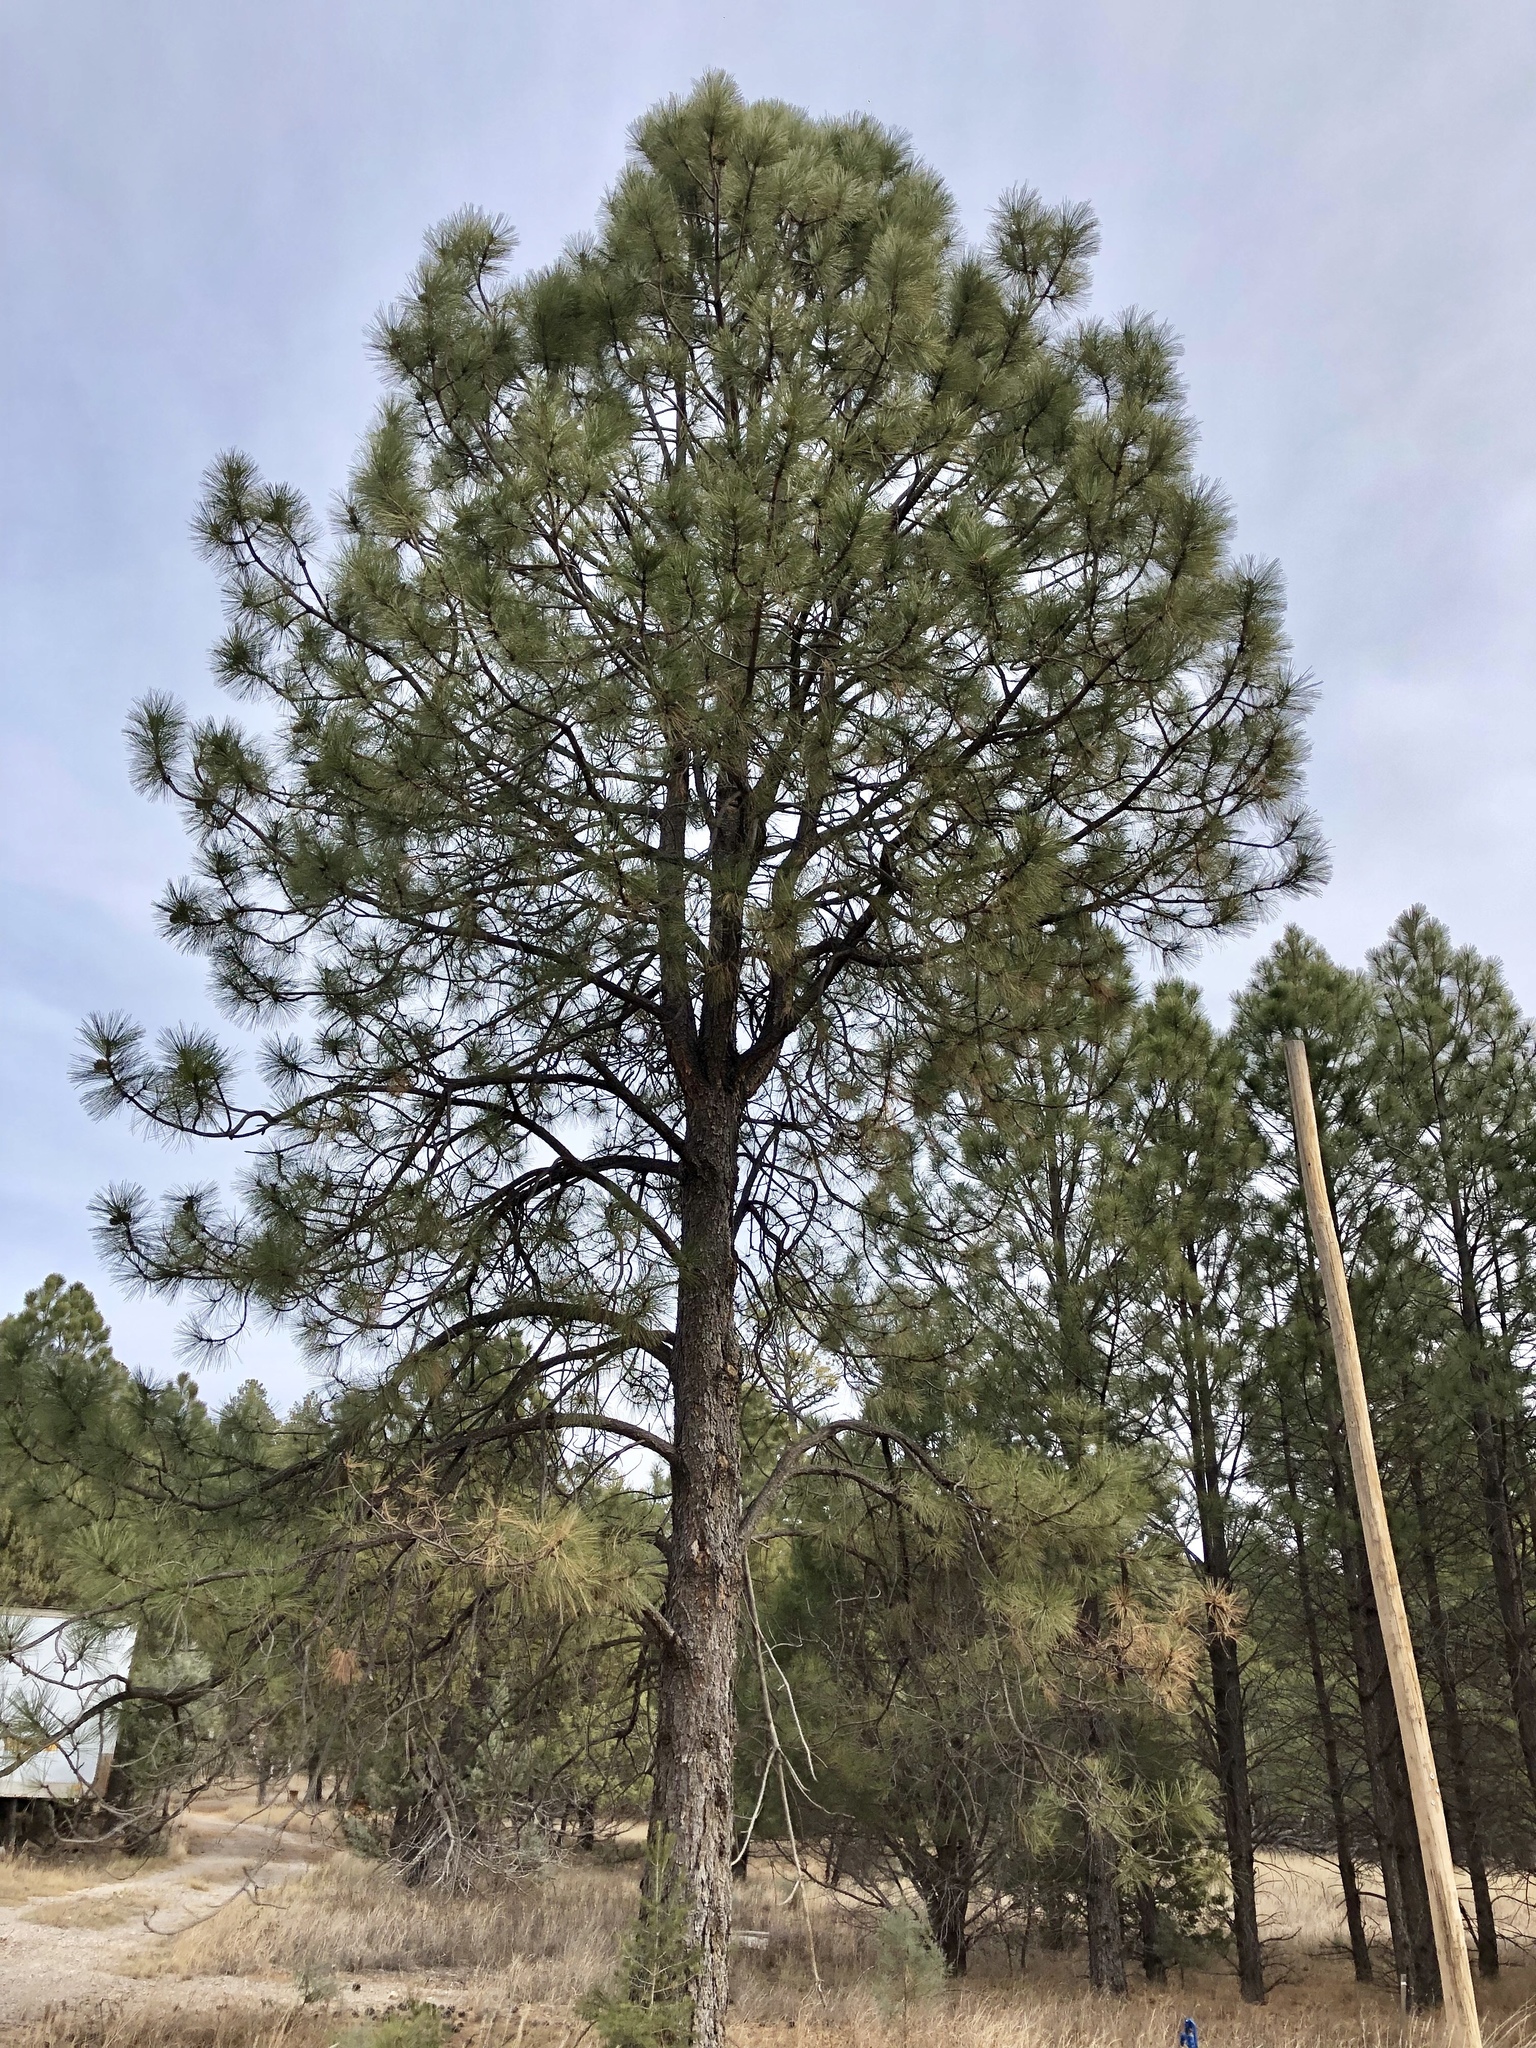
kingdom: Plantae
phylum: Tracheophyta
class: Pinopsida
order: Pinales
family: Pinaceae
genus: Pinus
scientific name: Pinus ponderosa
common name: Western yellow-pine
